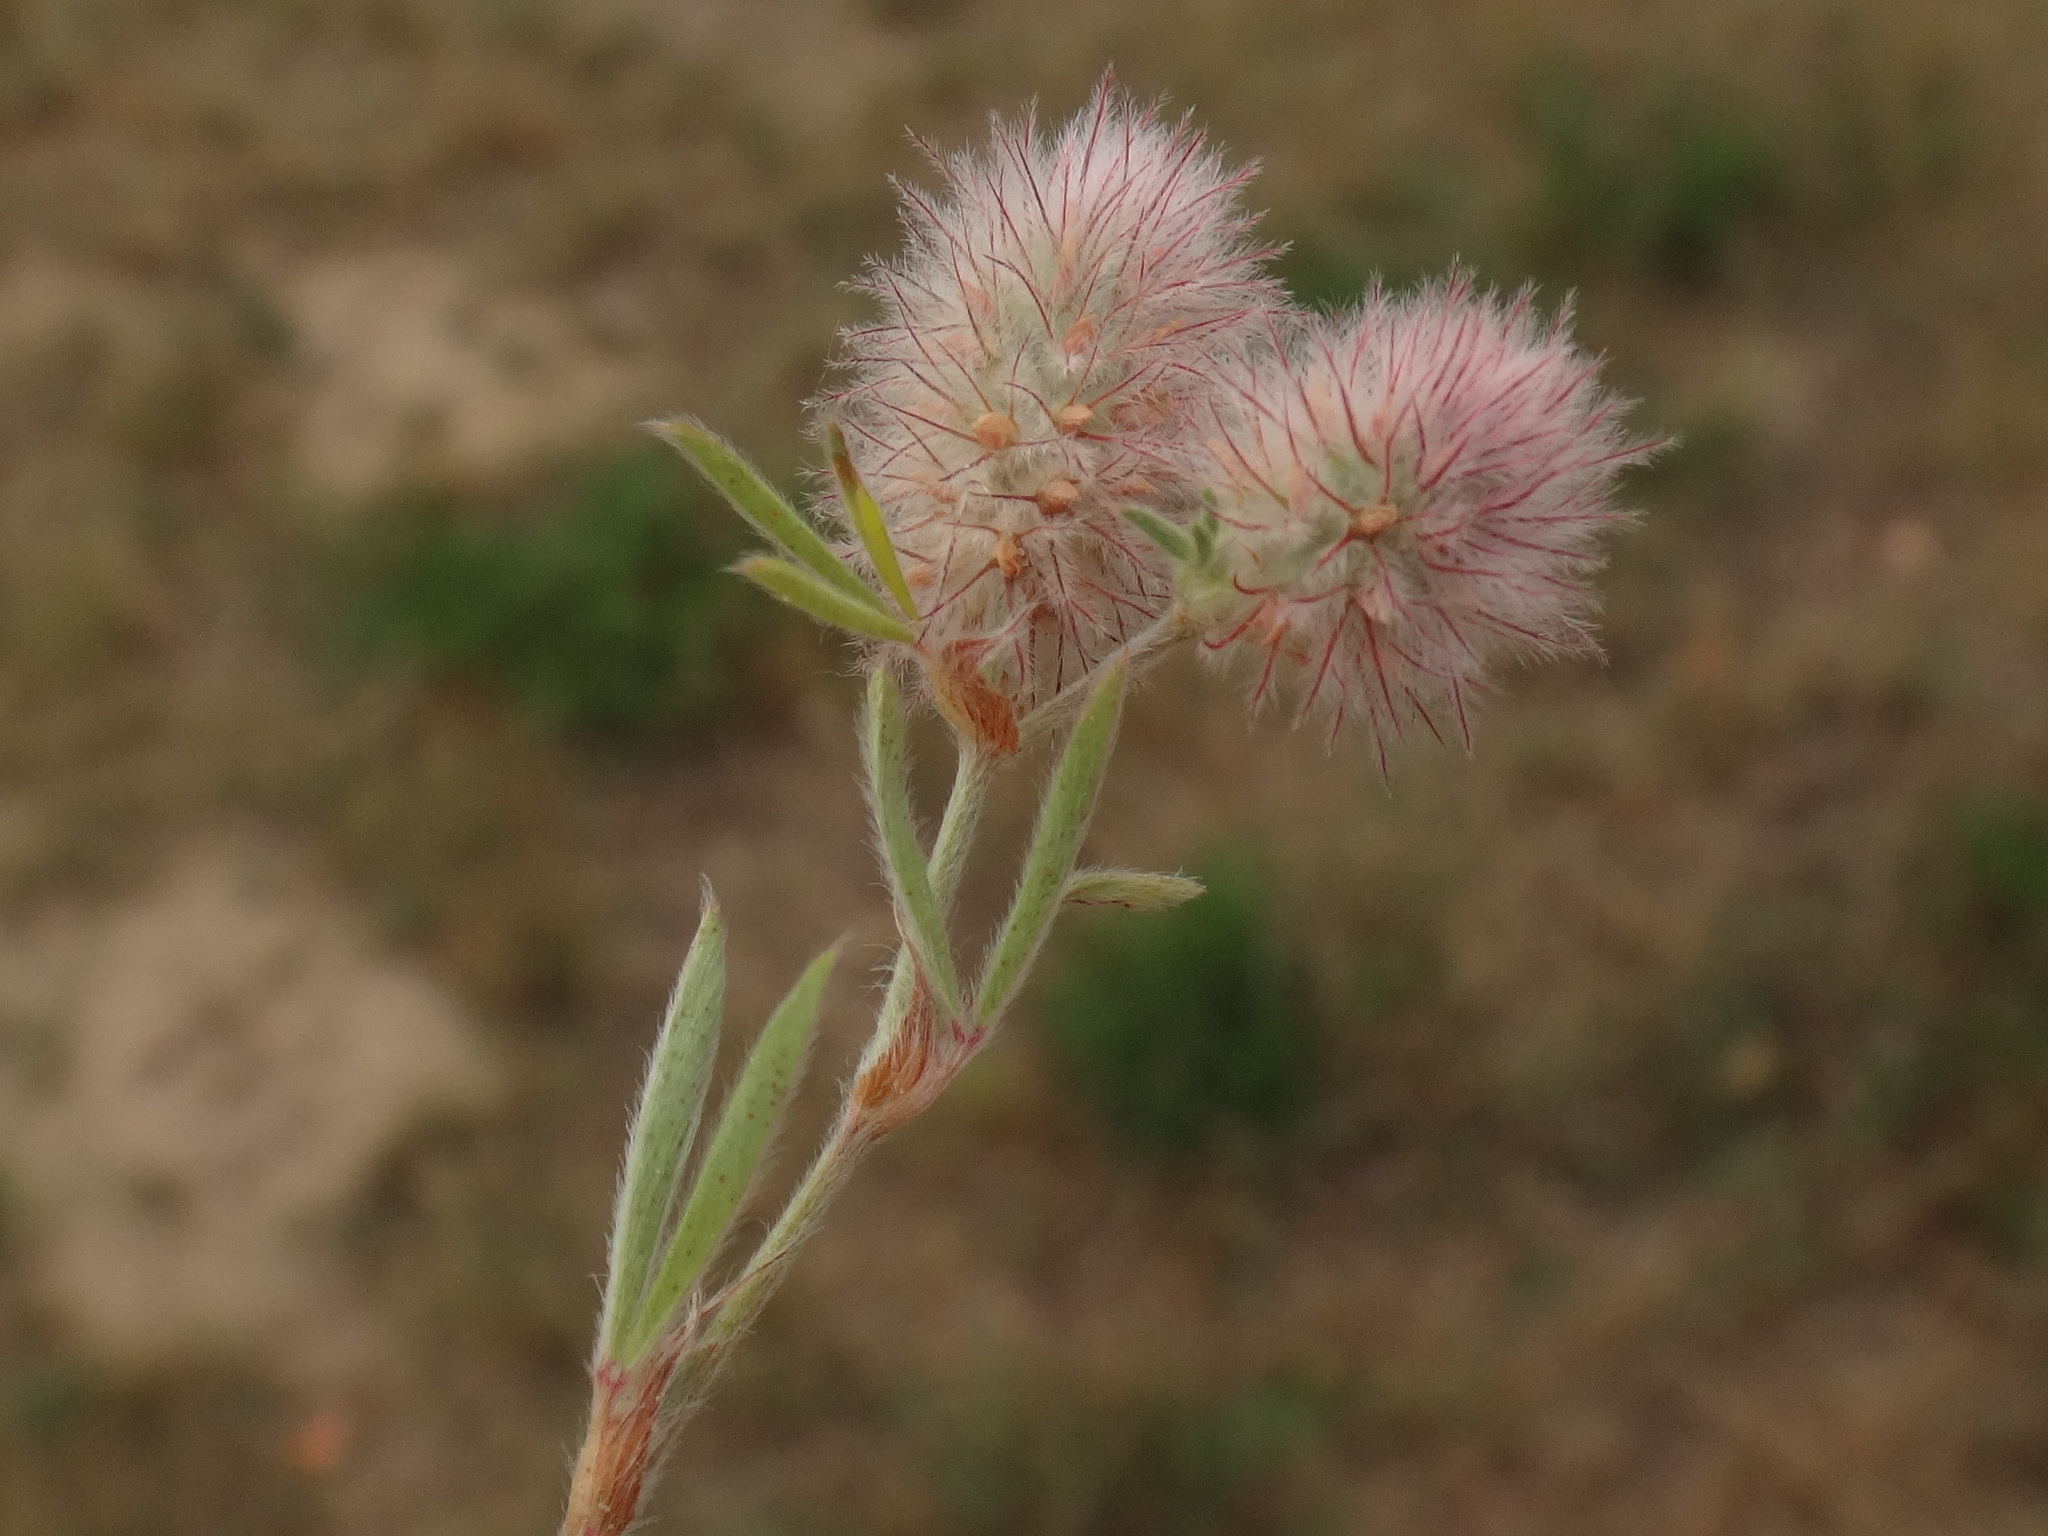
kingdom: Plantae
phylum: Tracheophyta
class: Magnoliopsida
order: Fabales
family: Fabaceae
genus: Trifolium
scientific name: Trifolium arvense
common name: Hare's-foot clover
